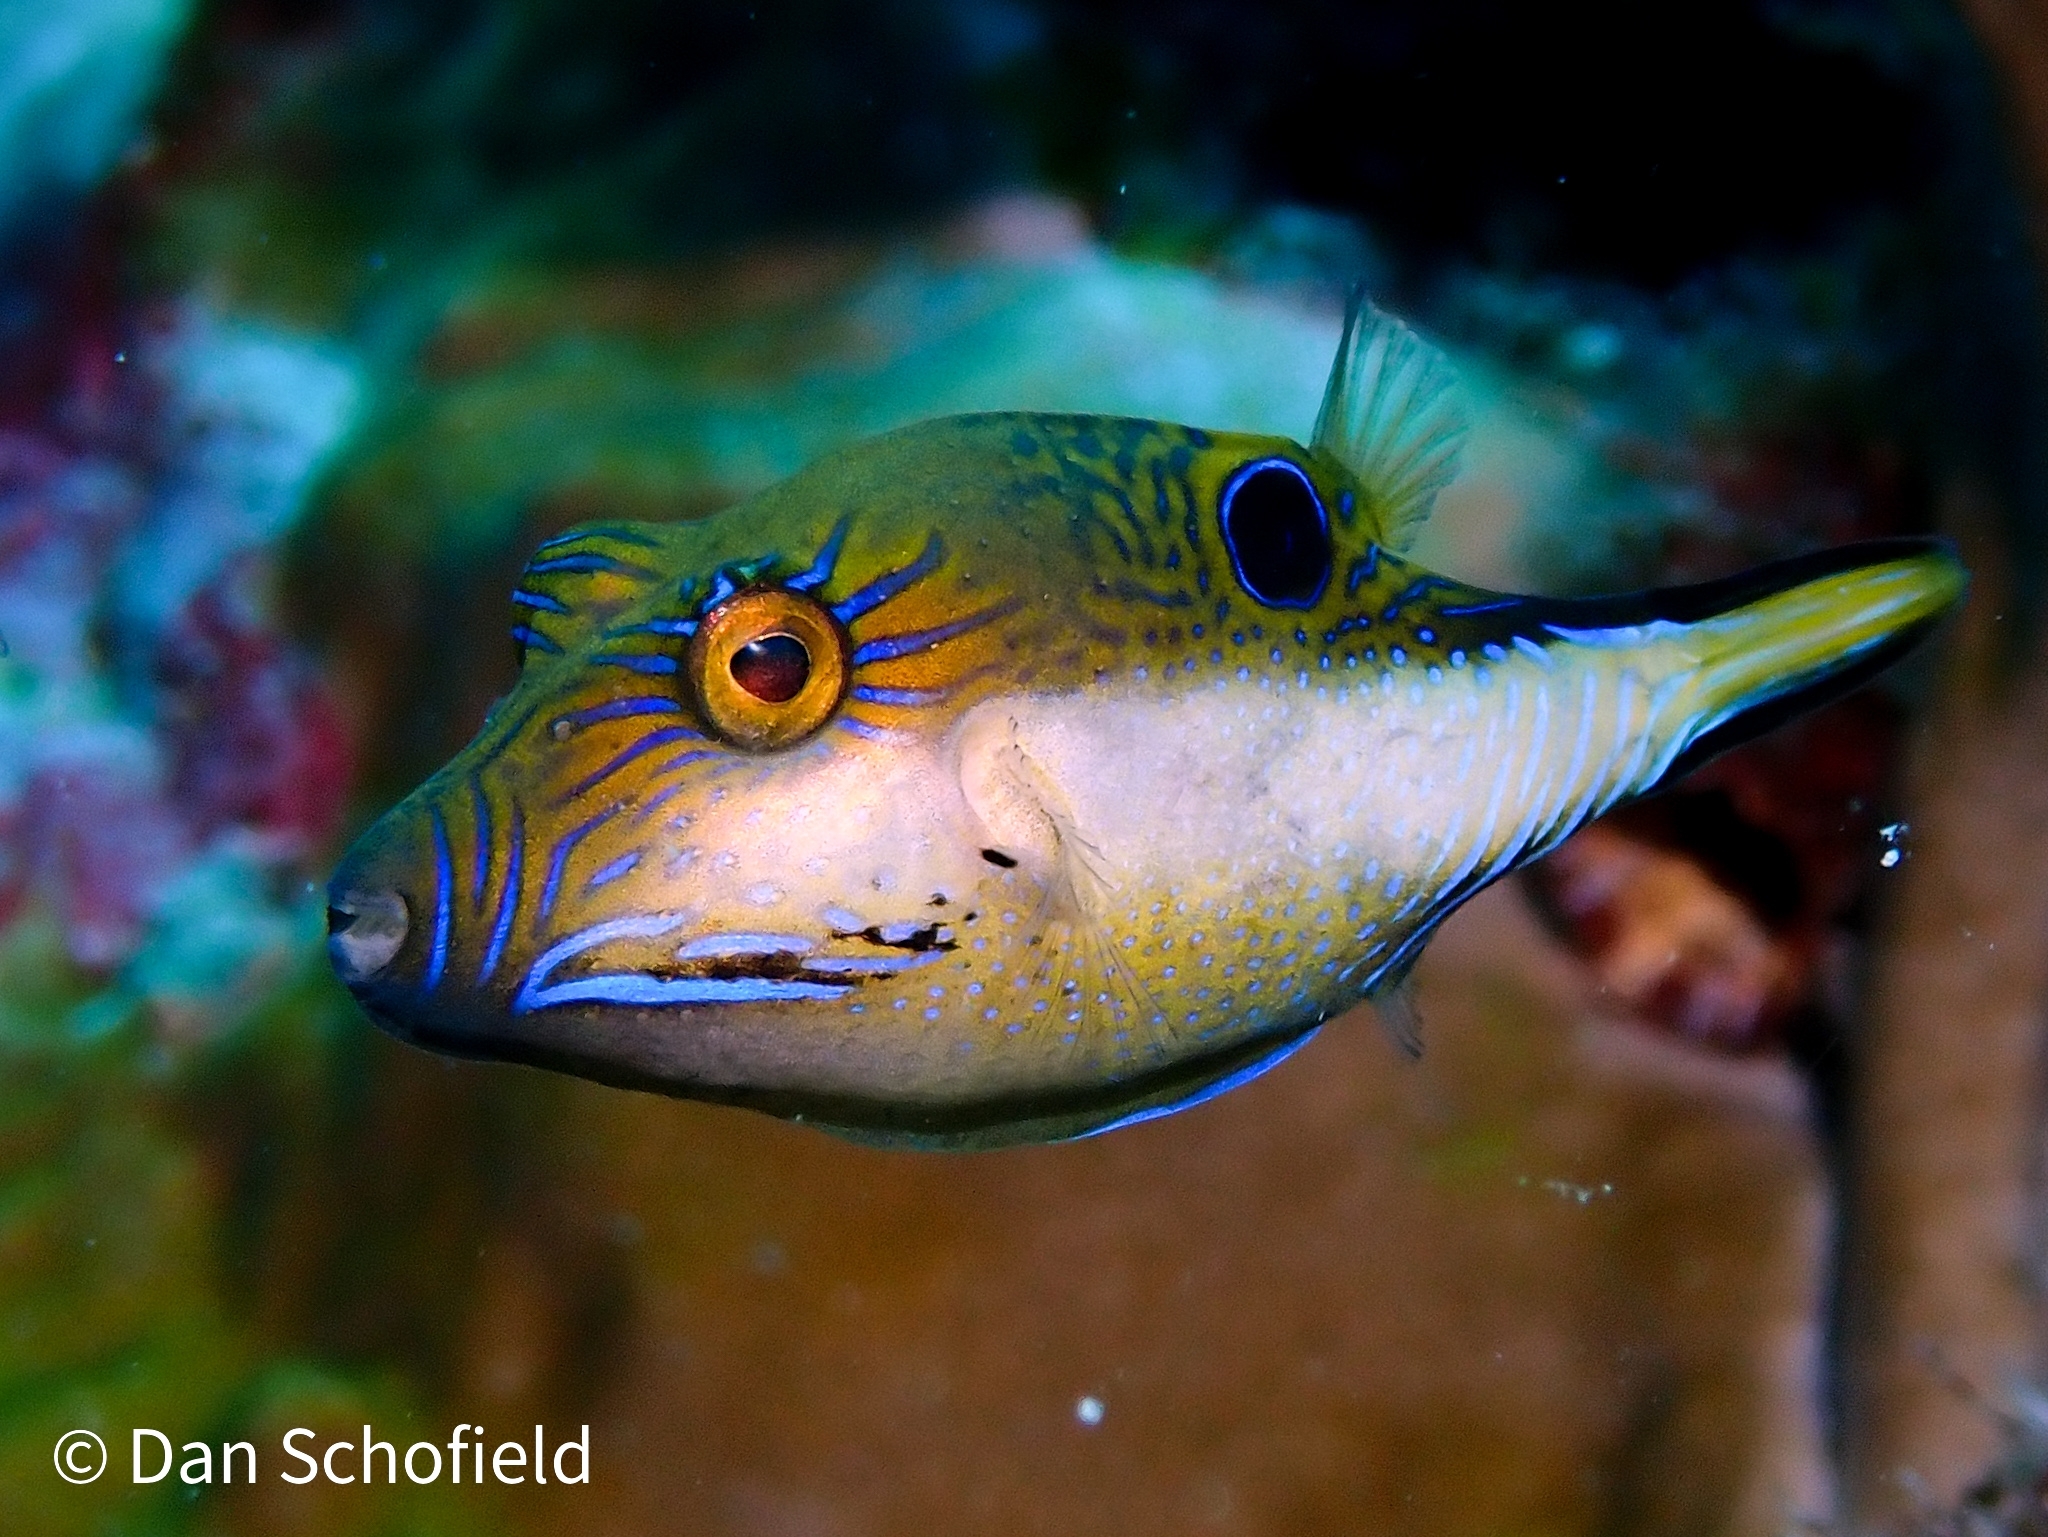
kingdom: Animalia
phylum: Chordata
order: Tetraodontiformes
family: Tetraodontidae
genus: Canthigaster
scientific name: Canthigaster rostrata
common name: Caribbean sharpnose-puffer
